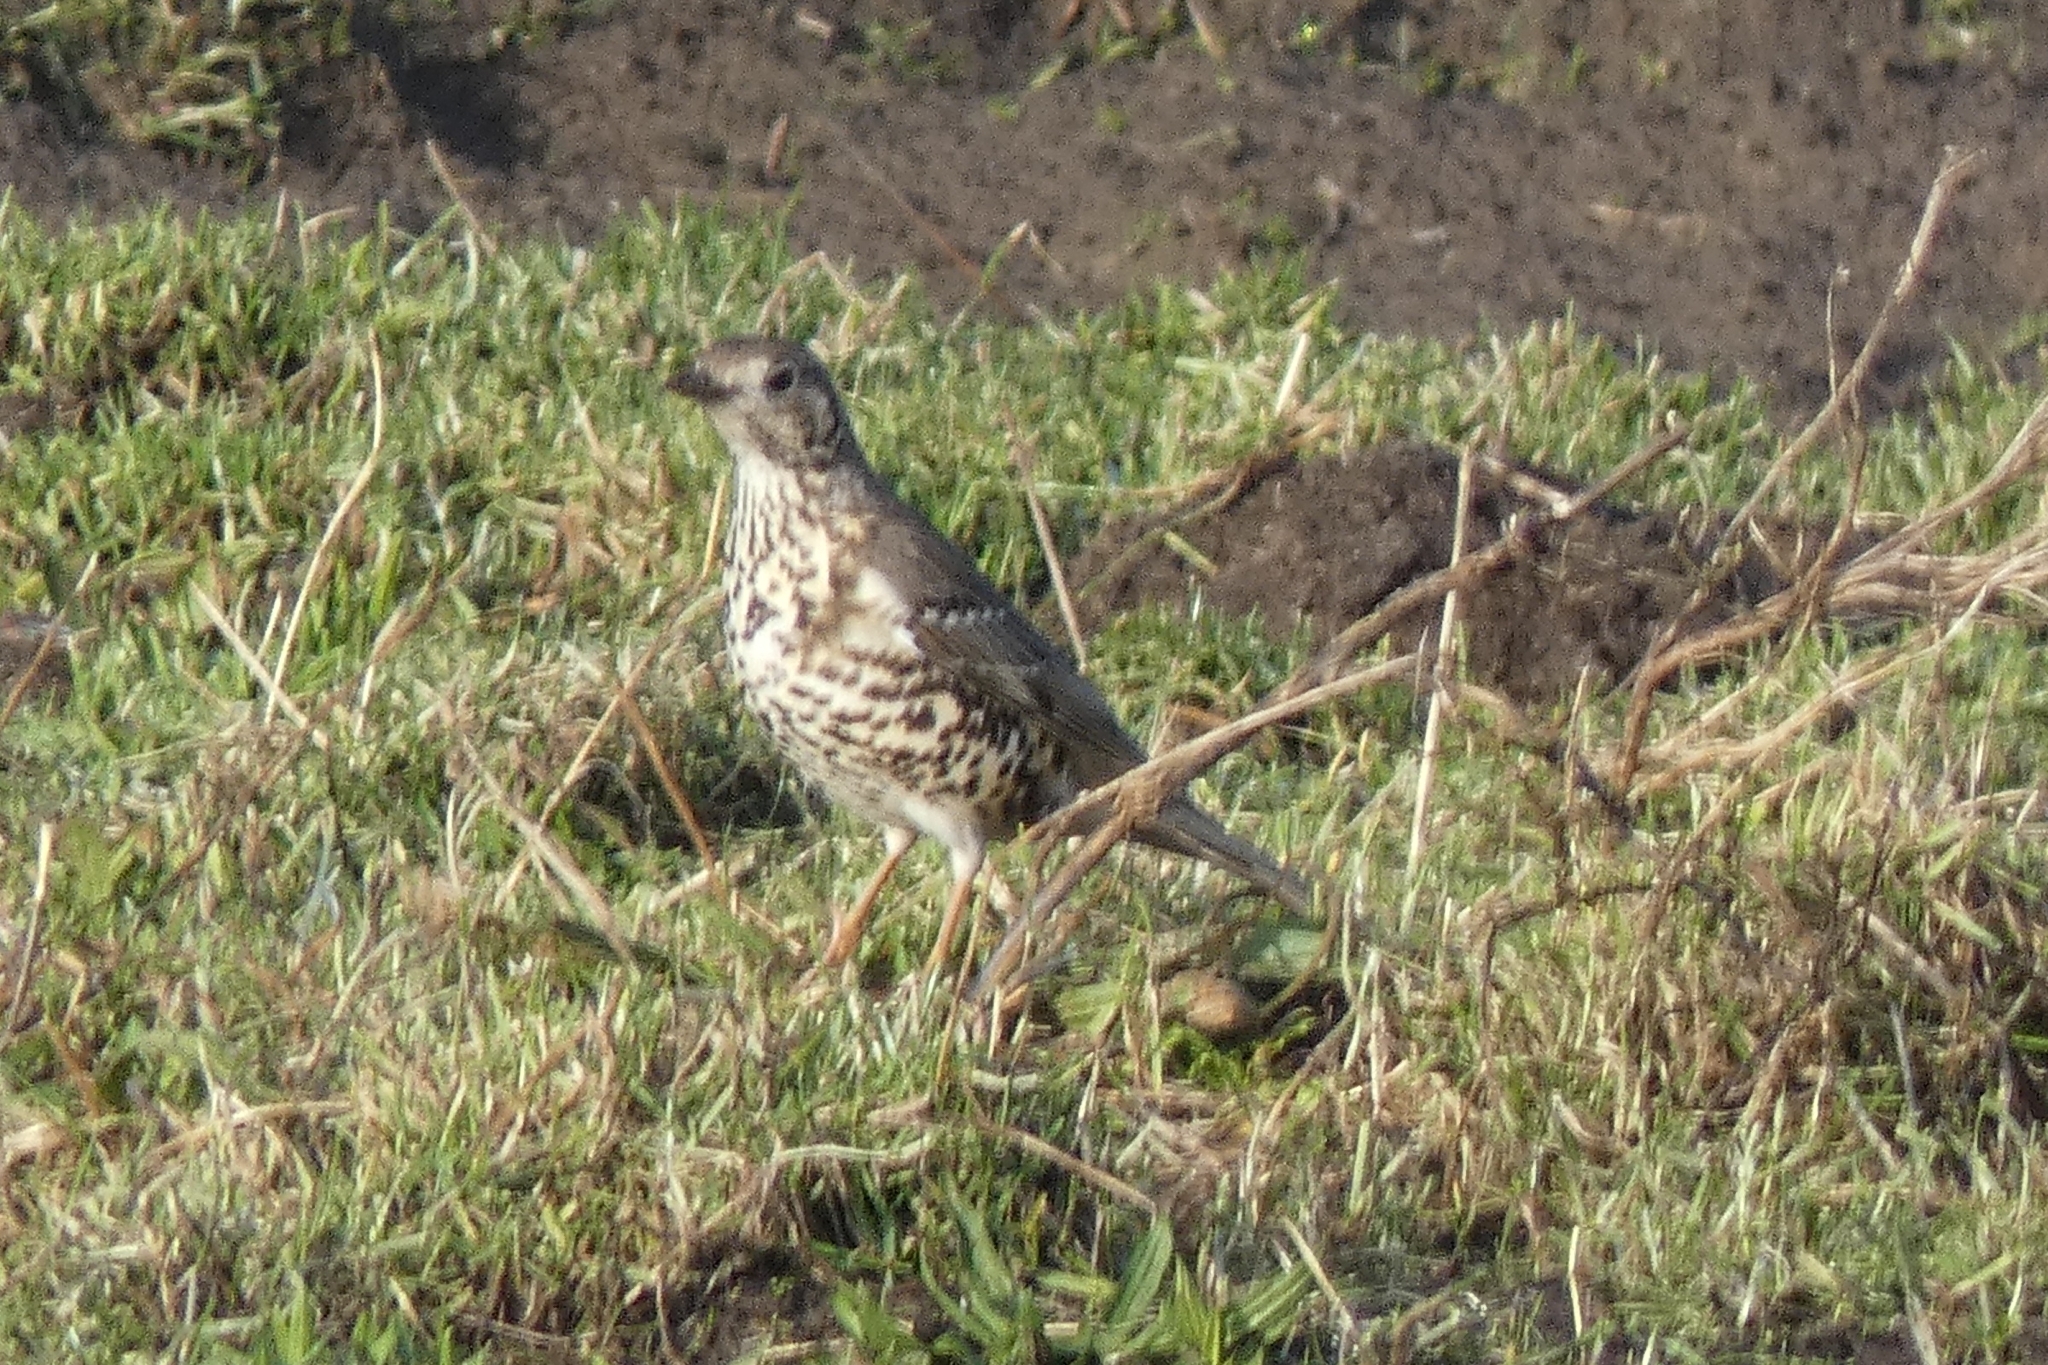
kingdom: Animalia
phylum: Chordata
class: Aves
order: Passeriformes
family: Turdidae
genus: Turdus
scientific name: Turdus viscivorus
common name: Mistle thrush
